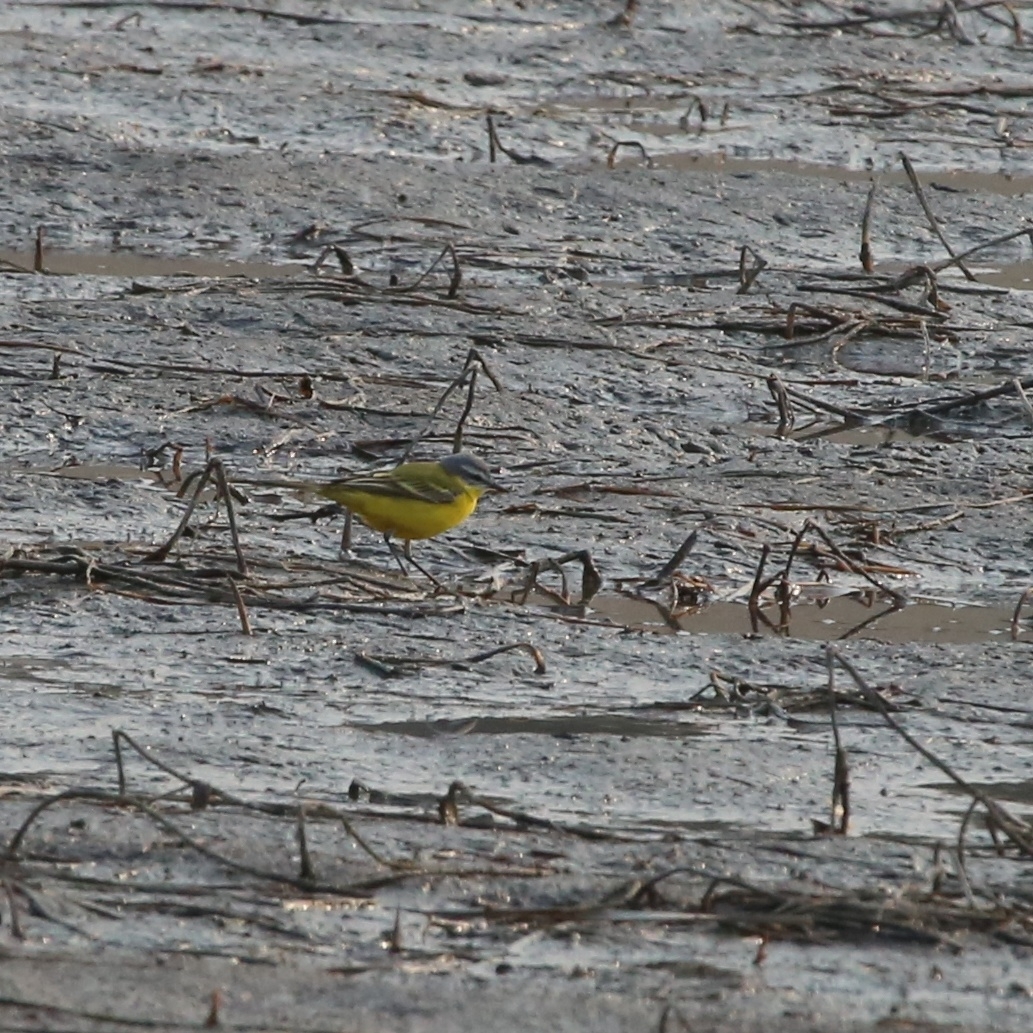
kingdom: Animalia
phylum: Chordata
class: Aves
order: Passeriformes
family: Motacillidae
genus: Motacilla
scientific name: Motacilla flava
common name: Western yellow wagtail
